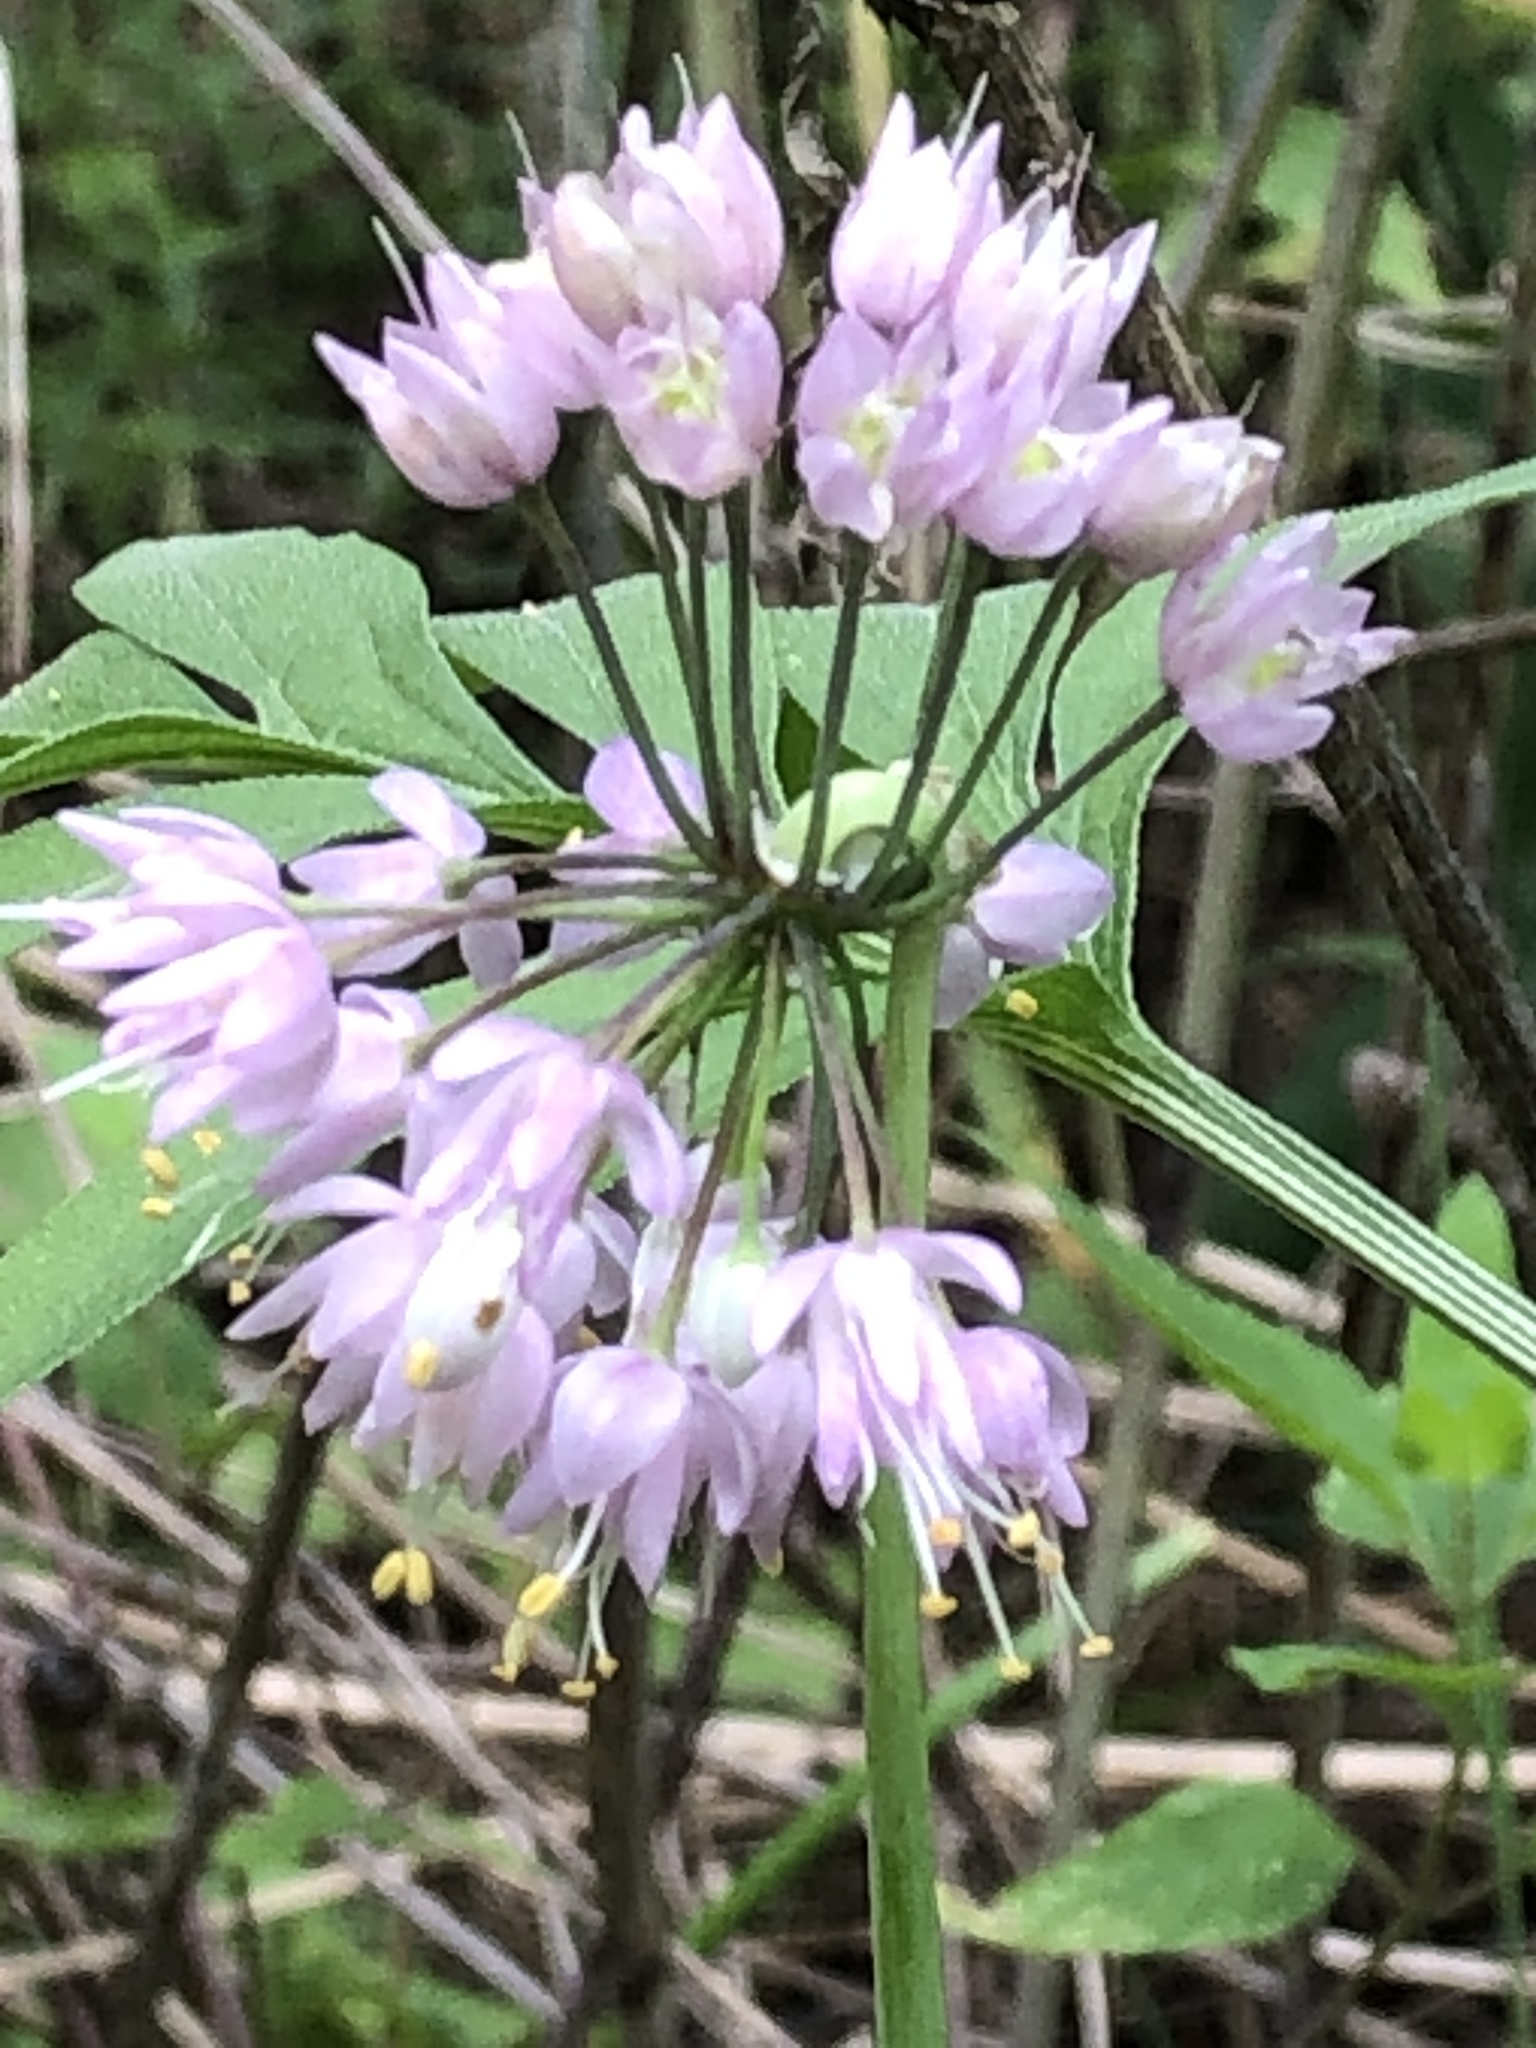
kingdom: Plantae
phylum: Tracheophyta
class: Liliopsida
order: Asparagales
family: Amaryllidaceae
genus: Allium
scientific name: Allium cernuum
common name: Nodding onion
